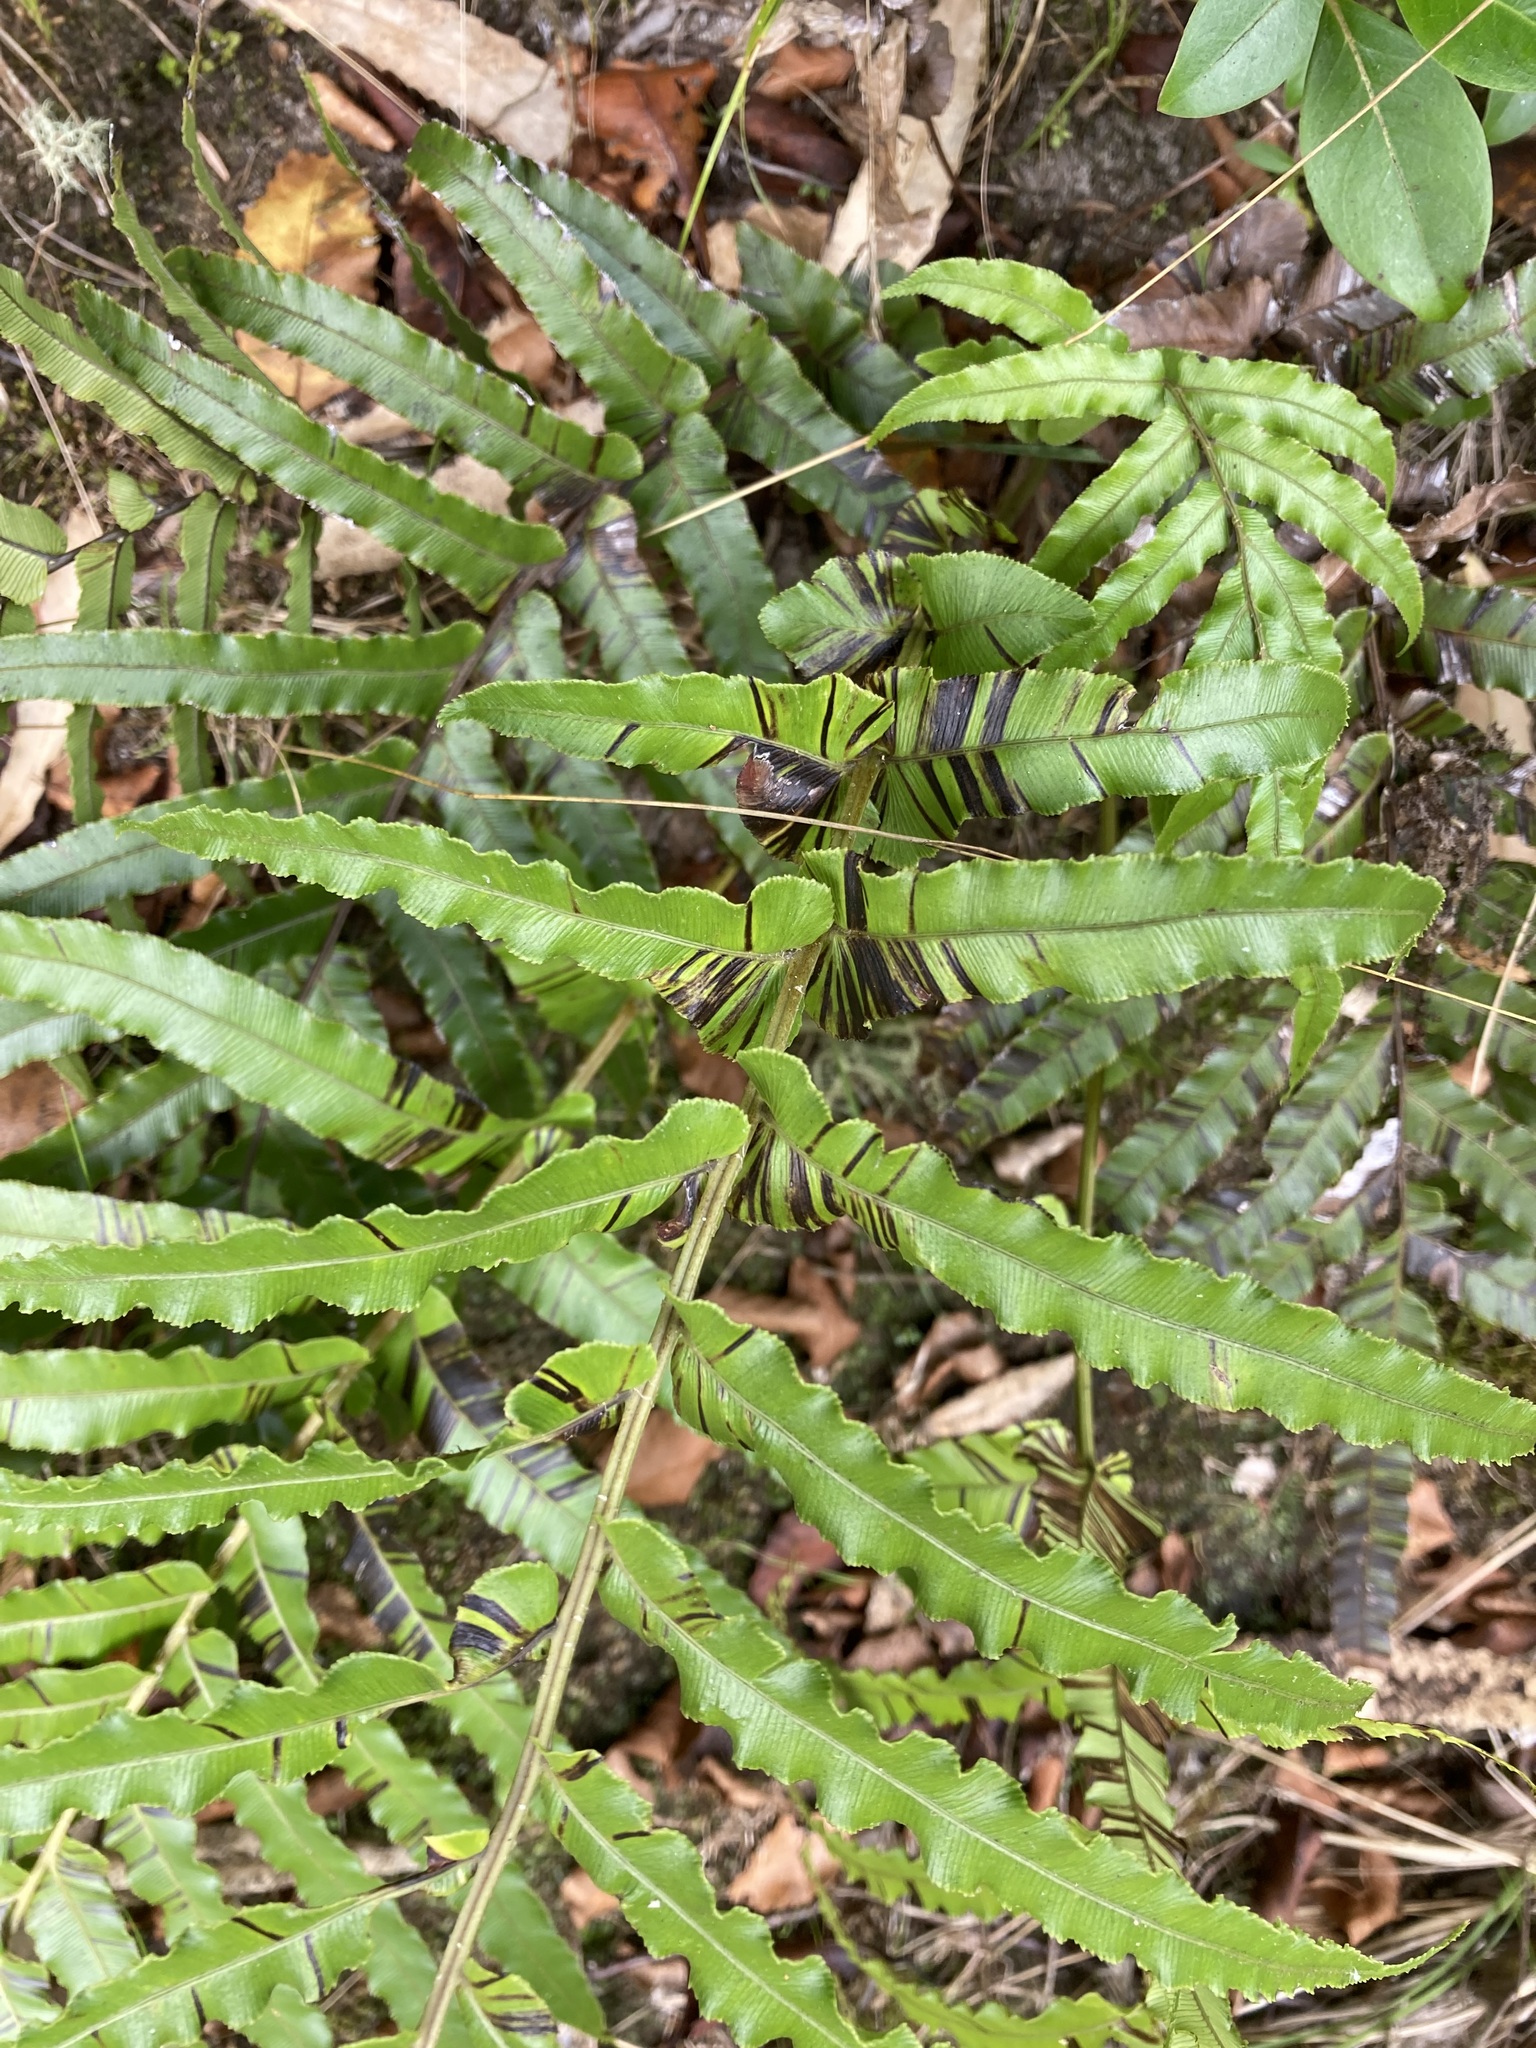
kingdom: Plantae
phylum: Tracheophyta
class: Polypodiopsida
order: Polypodiales
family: Blechnaceae
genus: Parablechnum
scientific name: Parablechnum novae-zelandiae
